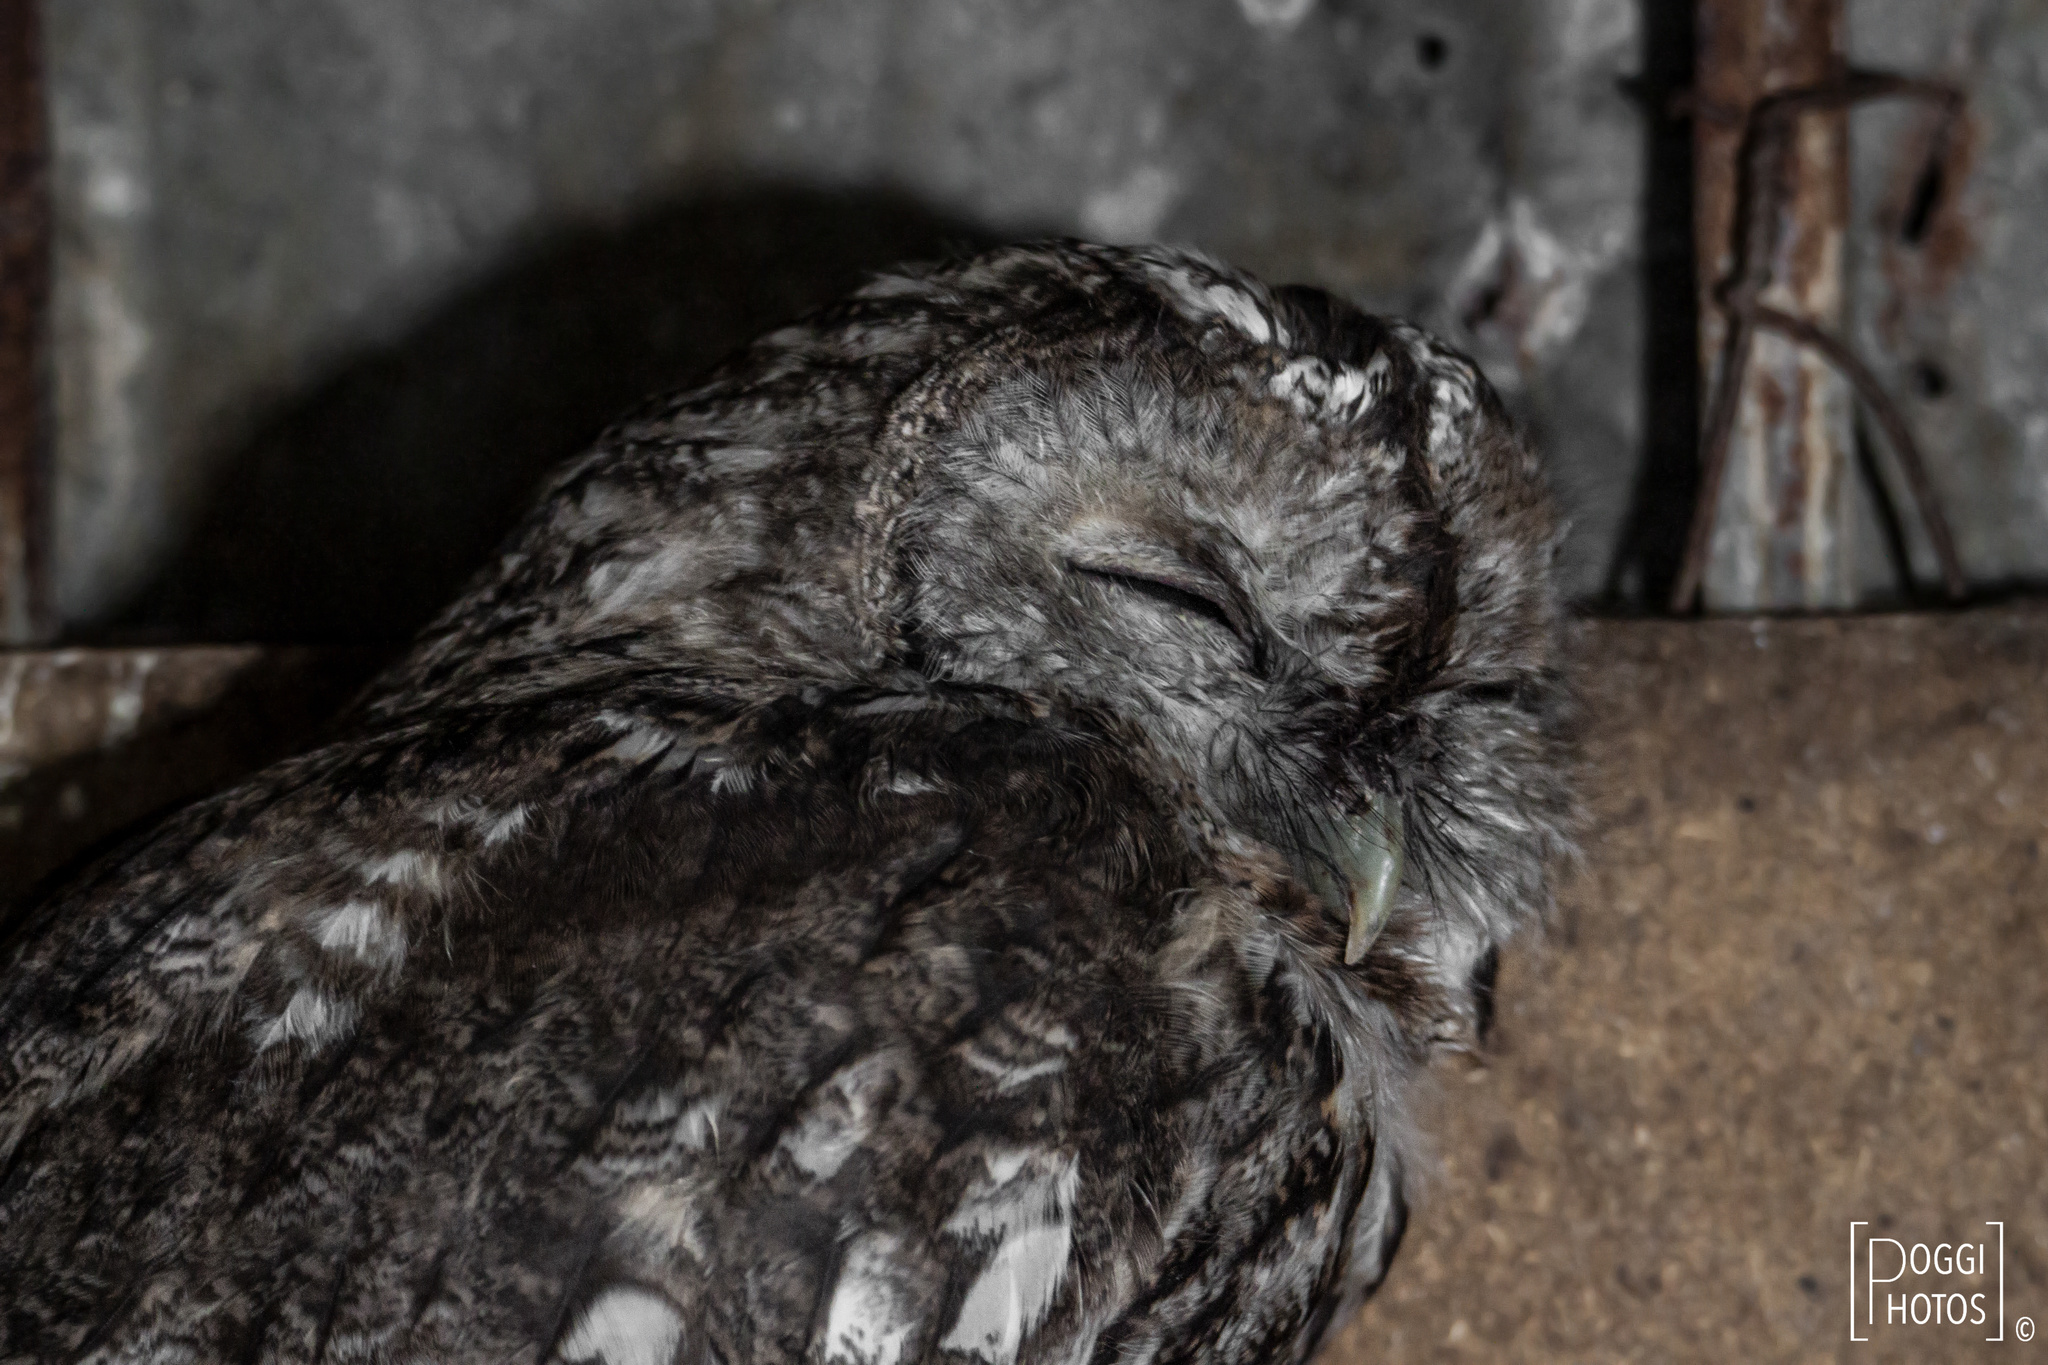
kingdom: Animalia
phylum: Chordata
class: Aves
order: Strigiformes
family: Strigidae
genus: Strix
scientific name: Strix aluco
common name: Tawny owl
